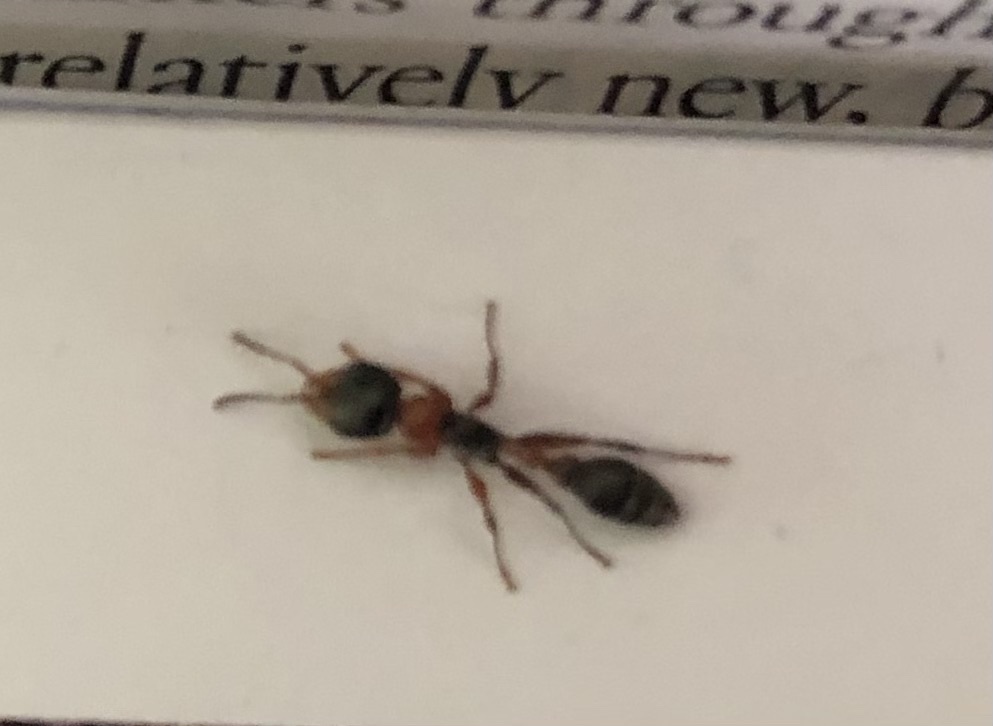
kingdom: Animalia
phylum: Arthropoda
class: Insecta
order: Hymenoptera
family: Formicidae
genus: Pseudomyrmex
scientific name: Pseudomyrmex gracilis
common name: Graceful twig ant
